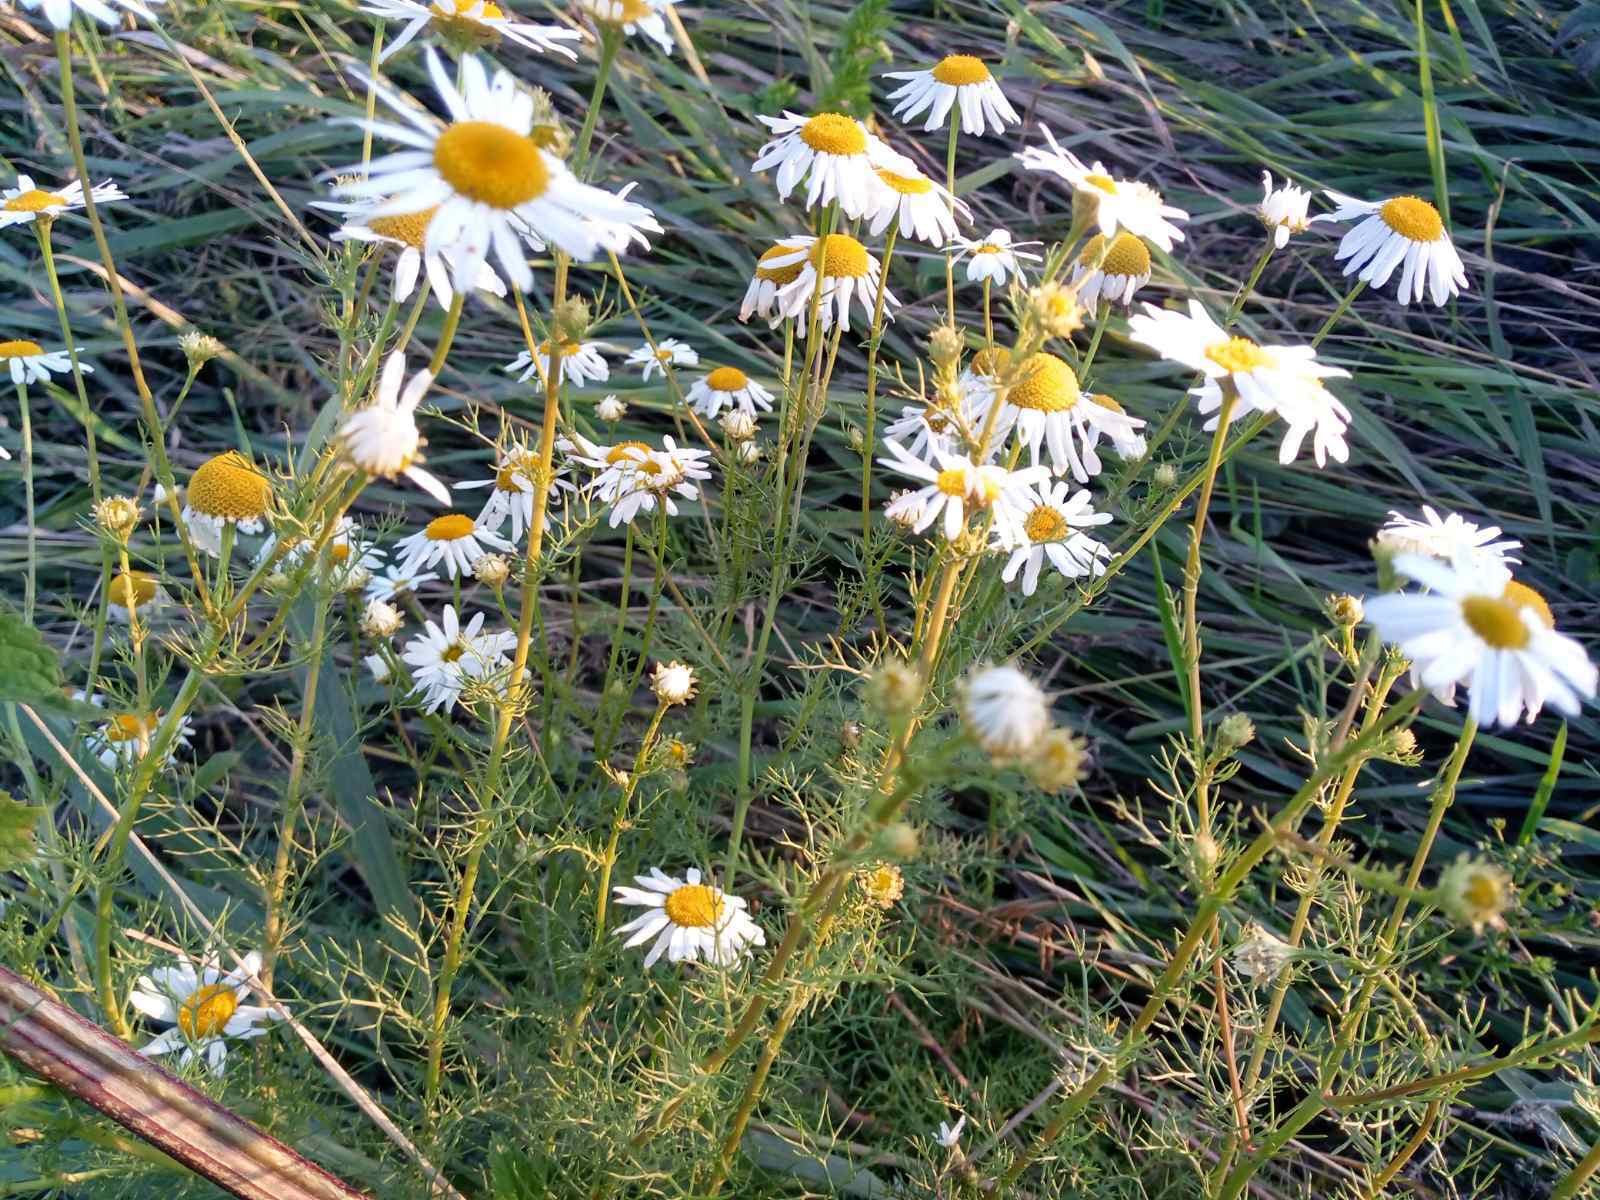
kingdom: Plantae
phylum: Tracheophyta
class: Magnoliopsida
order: Asterales
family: Asteraceae
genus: Tripleurospermum
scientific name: Tripleurospermum inodorum
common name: Scentless mayweed
